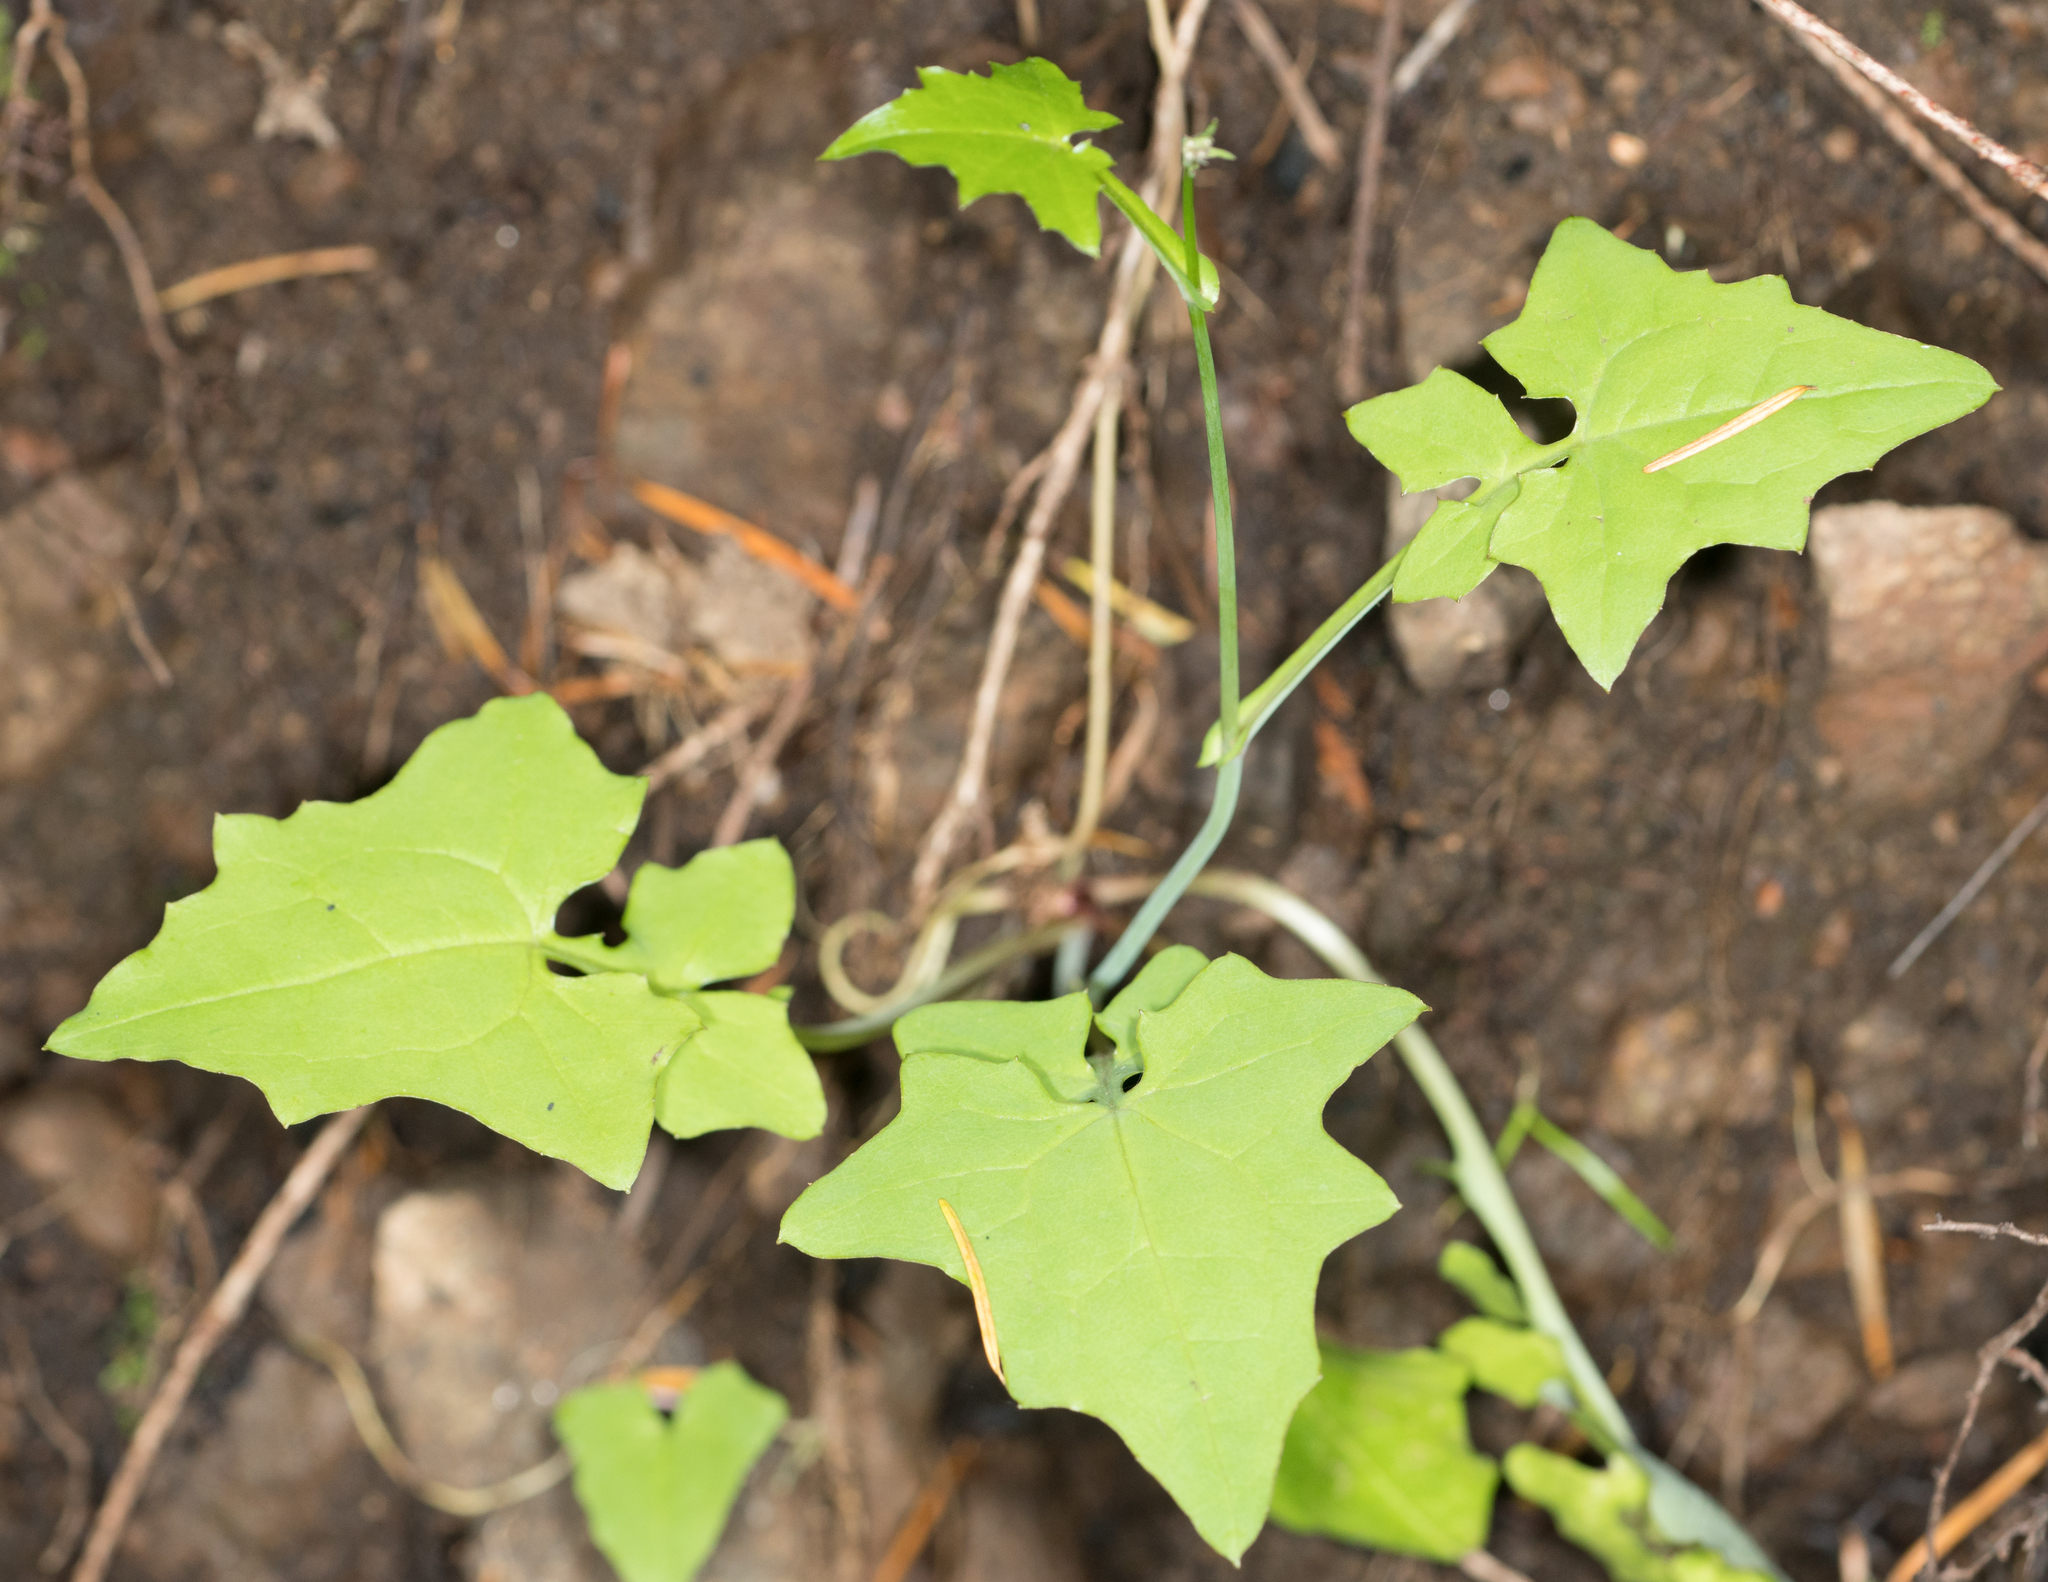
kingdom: Plantae
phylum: Tracheophyta
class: Magnoliopsida
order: Asterales
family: Asteraceae
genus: Mycelis
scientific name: Mycelis muralis
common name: Wall lettuce
